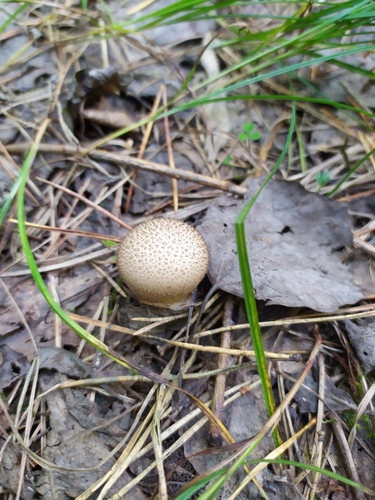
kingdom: Fungi
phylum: Basidiomycota
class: Agaricomycetes
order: Agaricales
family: Lycoperdaceae
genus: Lycoperdon
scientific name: Lycoperdon
